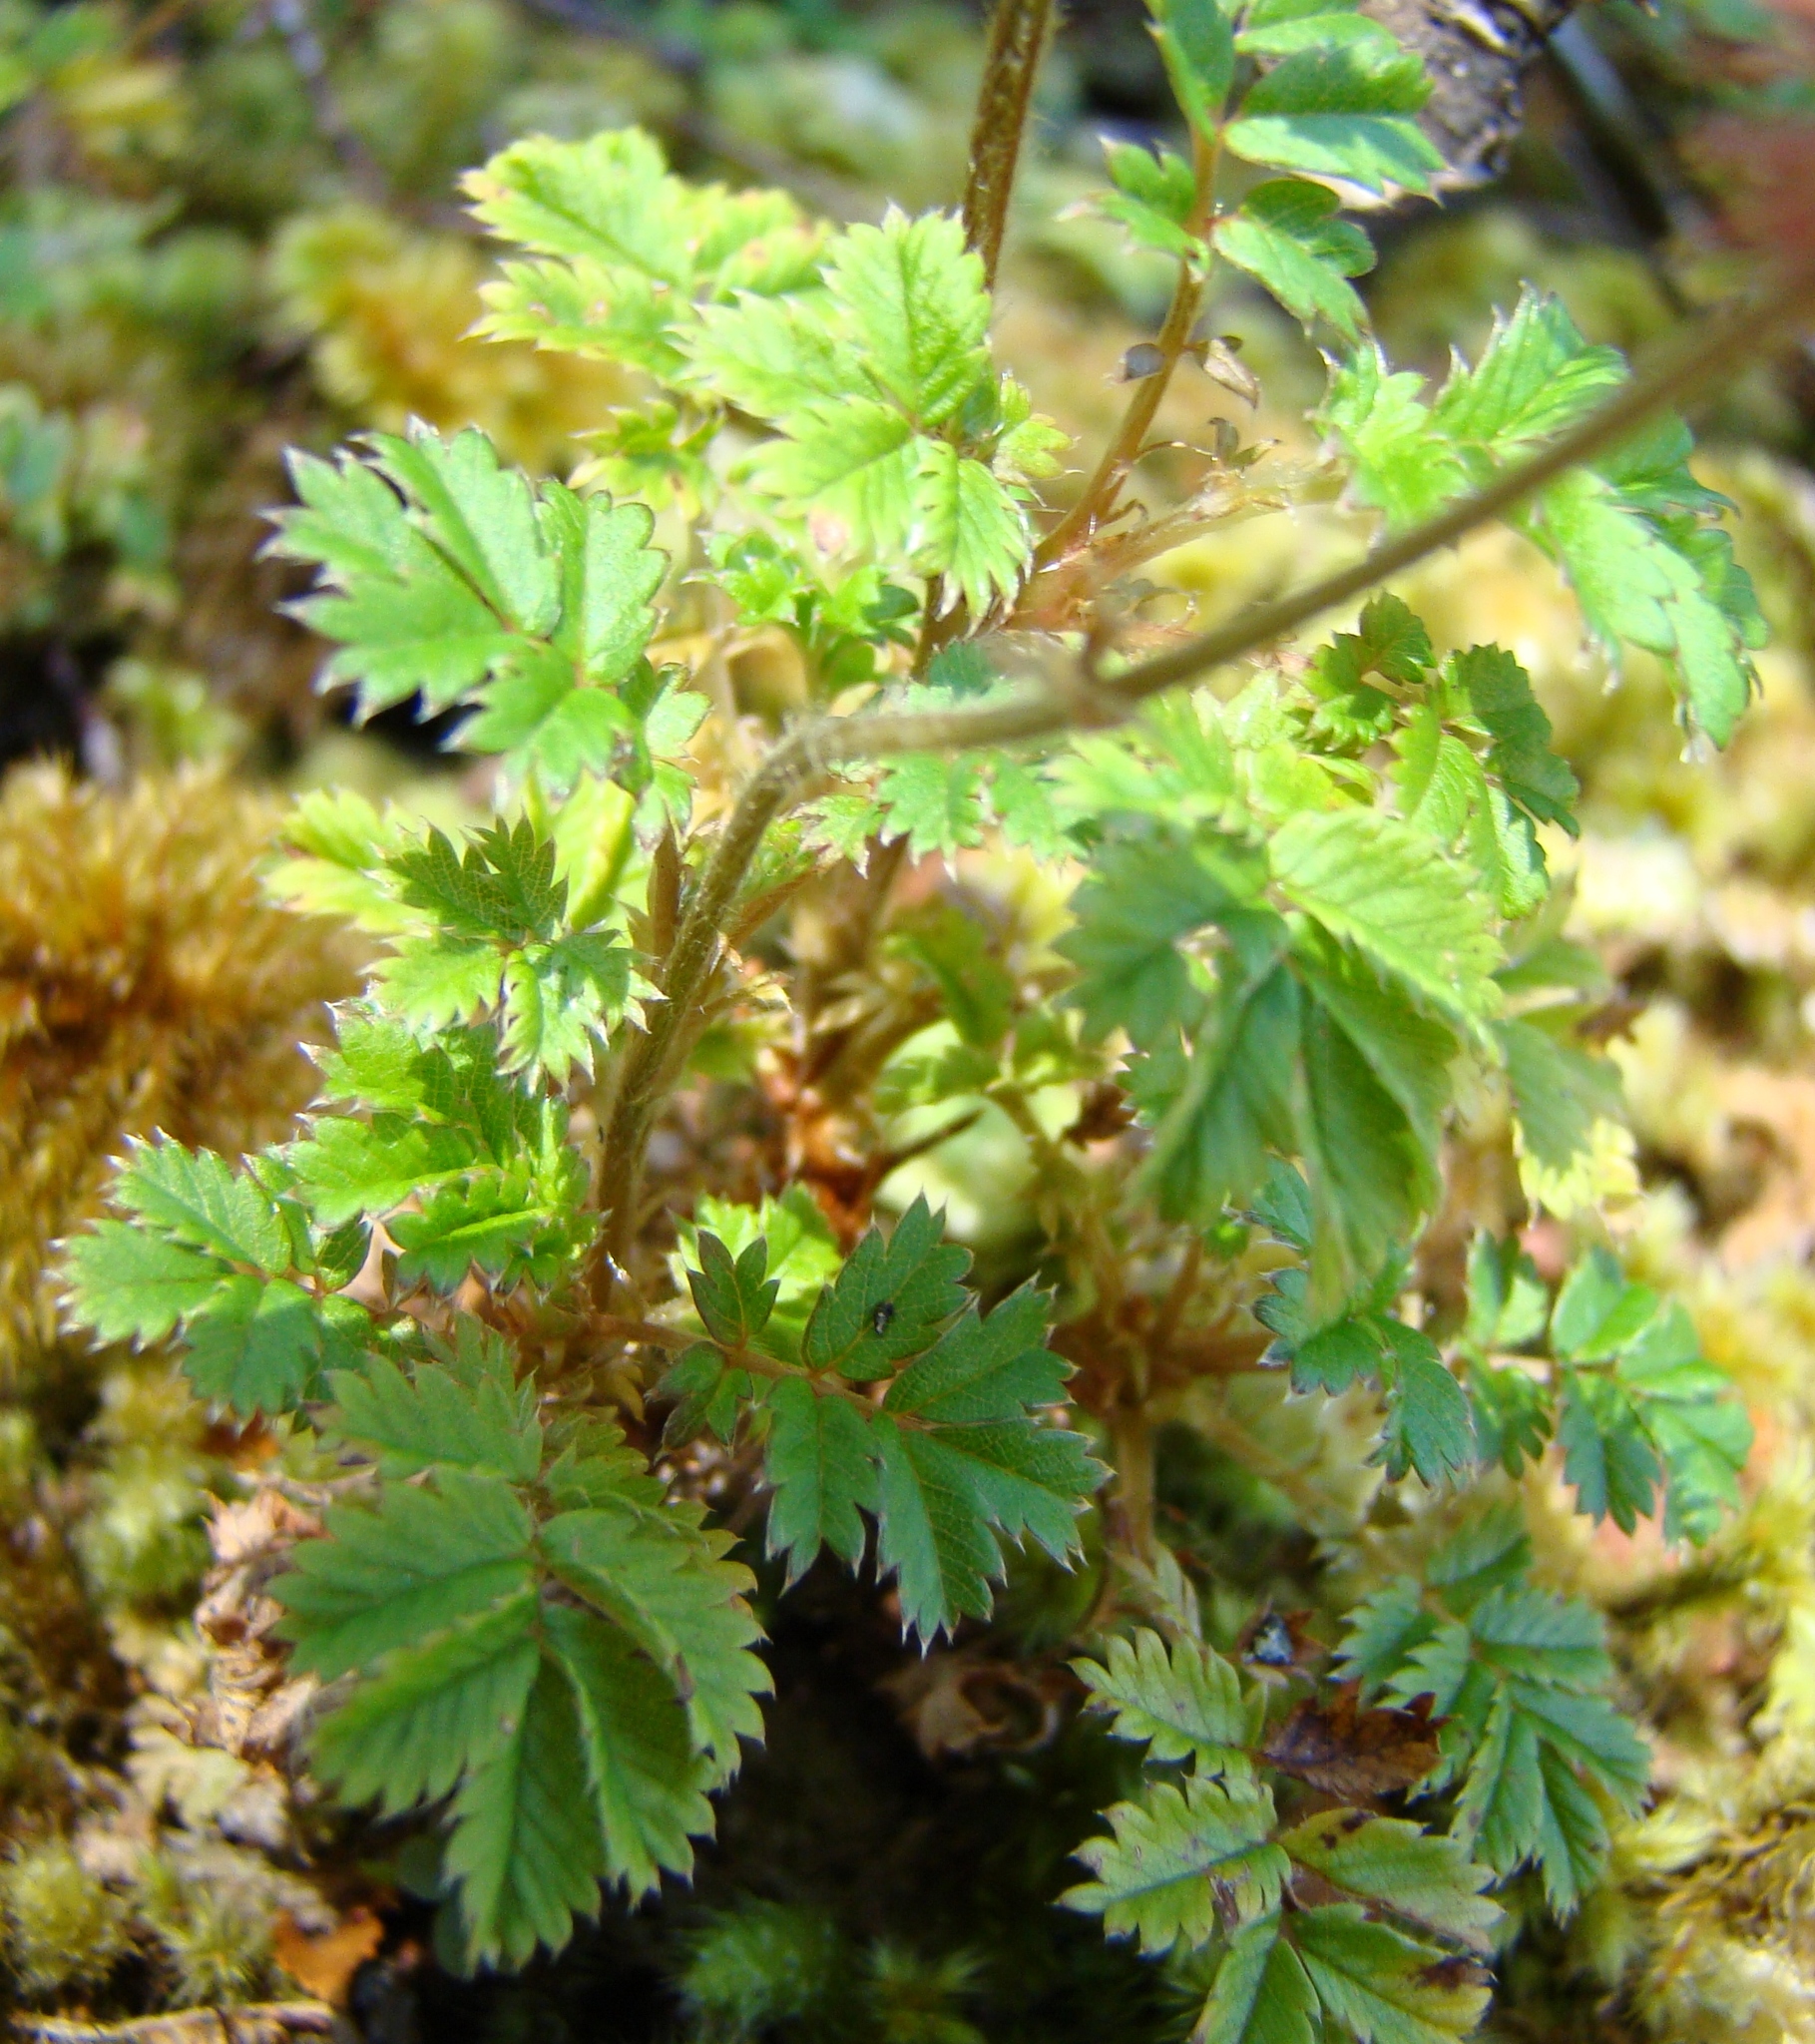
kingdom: Plantae
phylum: Tracheophyta
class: Magnoliopsida
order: Rosales
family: Rosaceae
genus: Acaena
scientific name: Acaena anserinifolia
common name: Bronze pirri-pirri-bur
